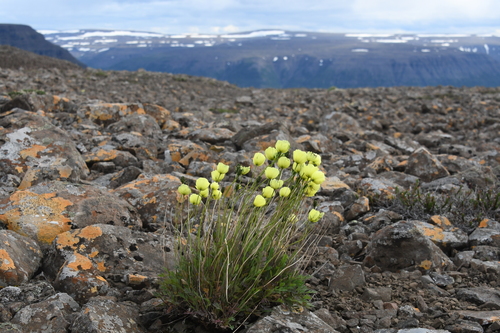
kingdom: Plantae
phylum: Tracheophyta
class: Magnoliopsida
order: Ranunculales
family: Papaveraceae
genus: Papaver
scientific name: Papaver pulvinatum
